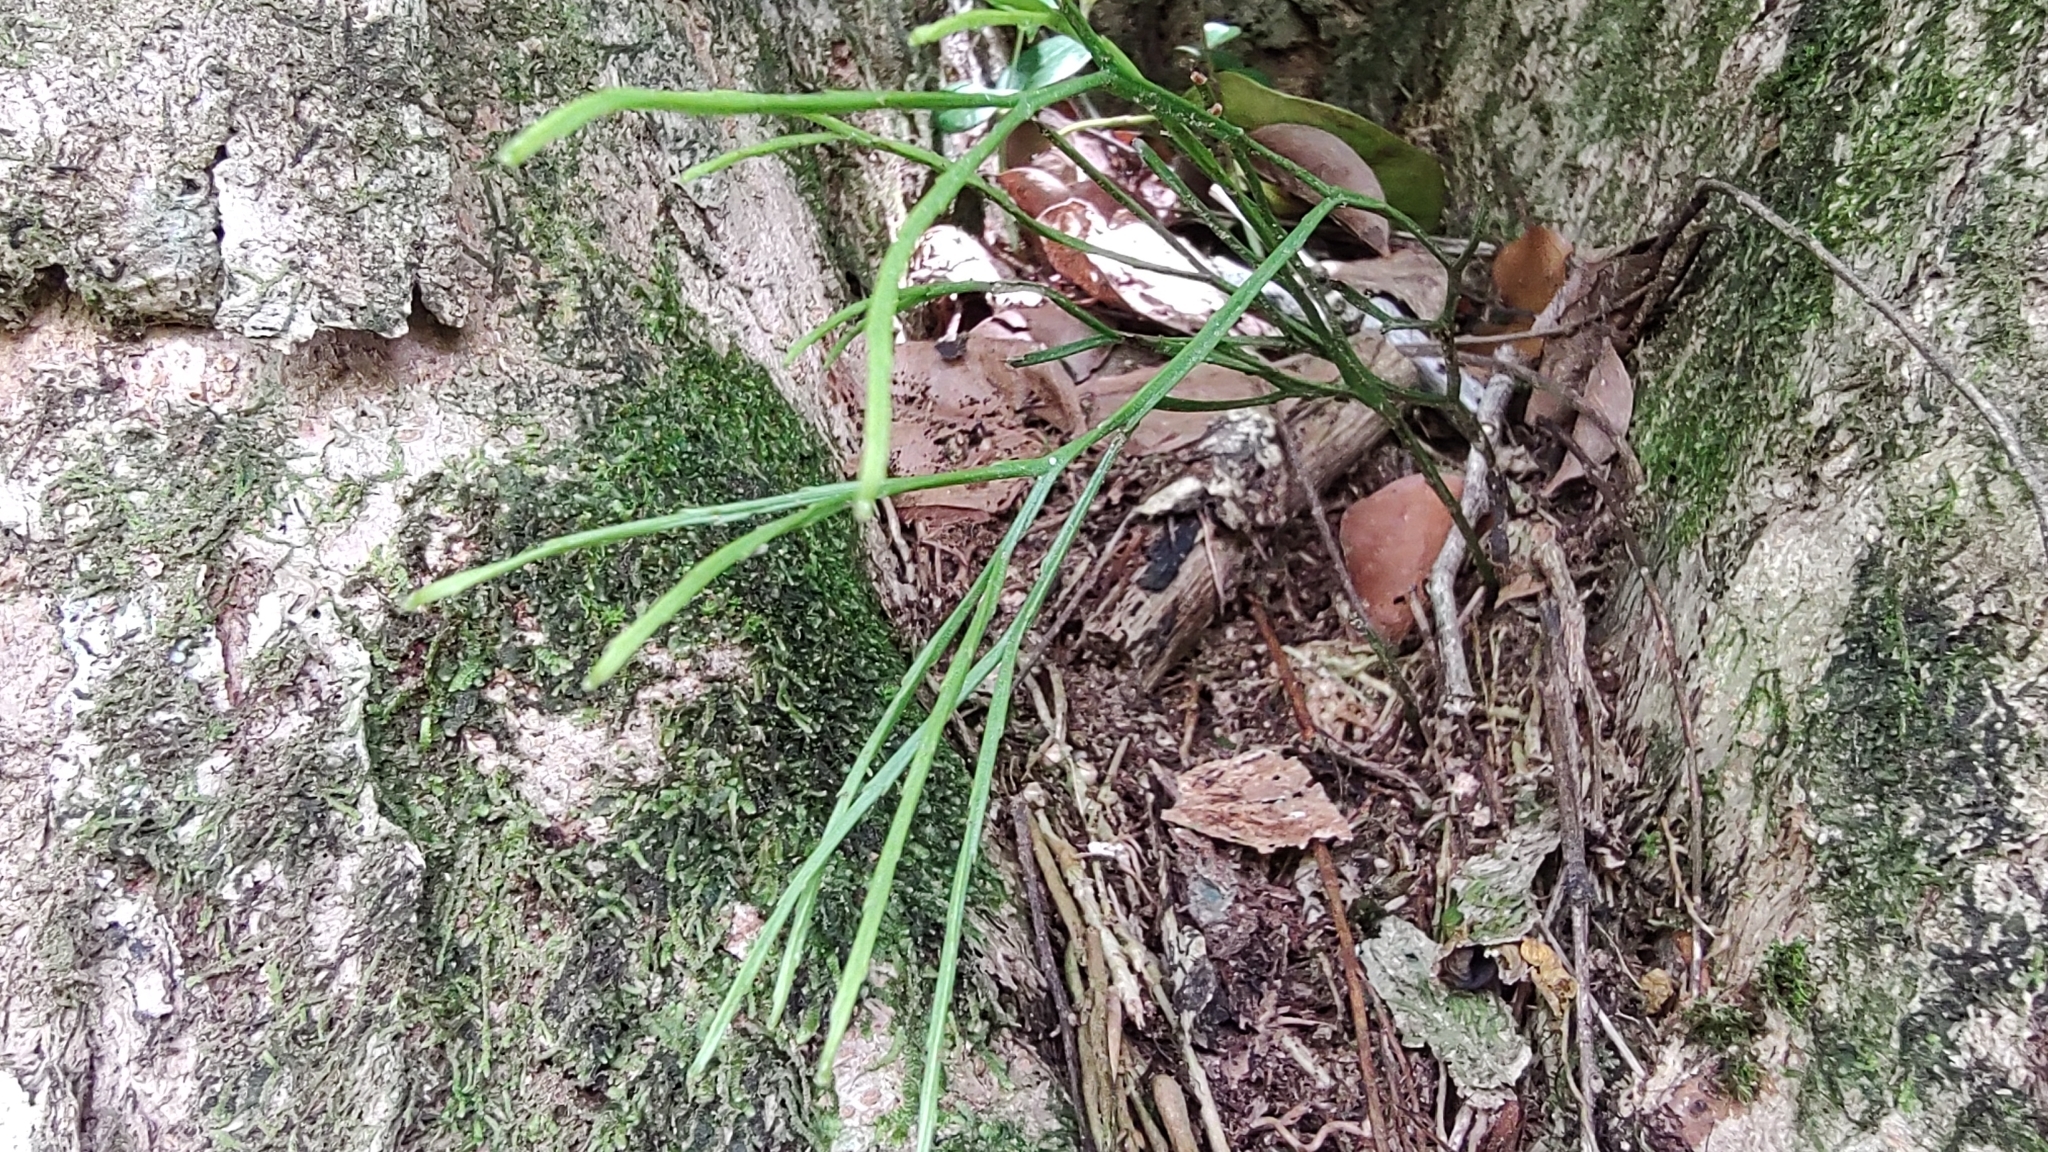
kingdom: Plantae
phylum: Tracheophyta
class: Polypodiopsida
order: Psilotales
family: Psilotaceae
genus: Psilotum
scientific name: Psilotum nudum
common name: Skeleton fork fern
